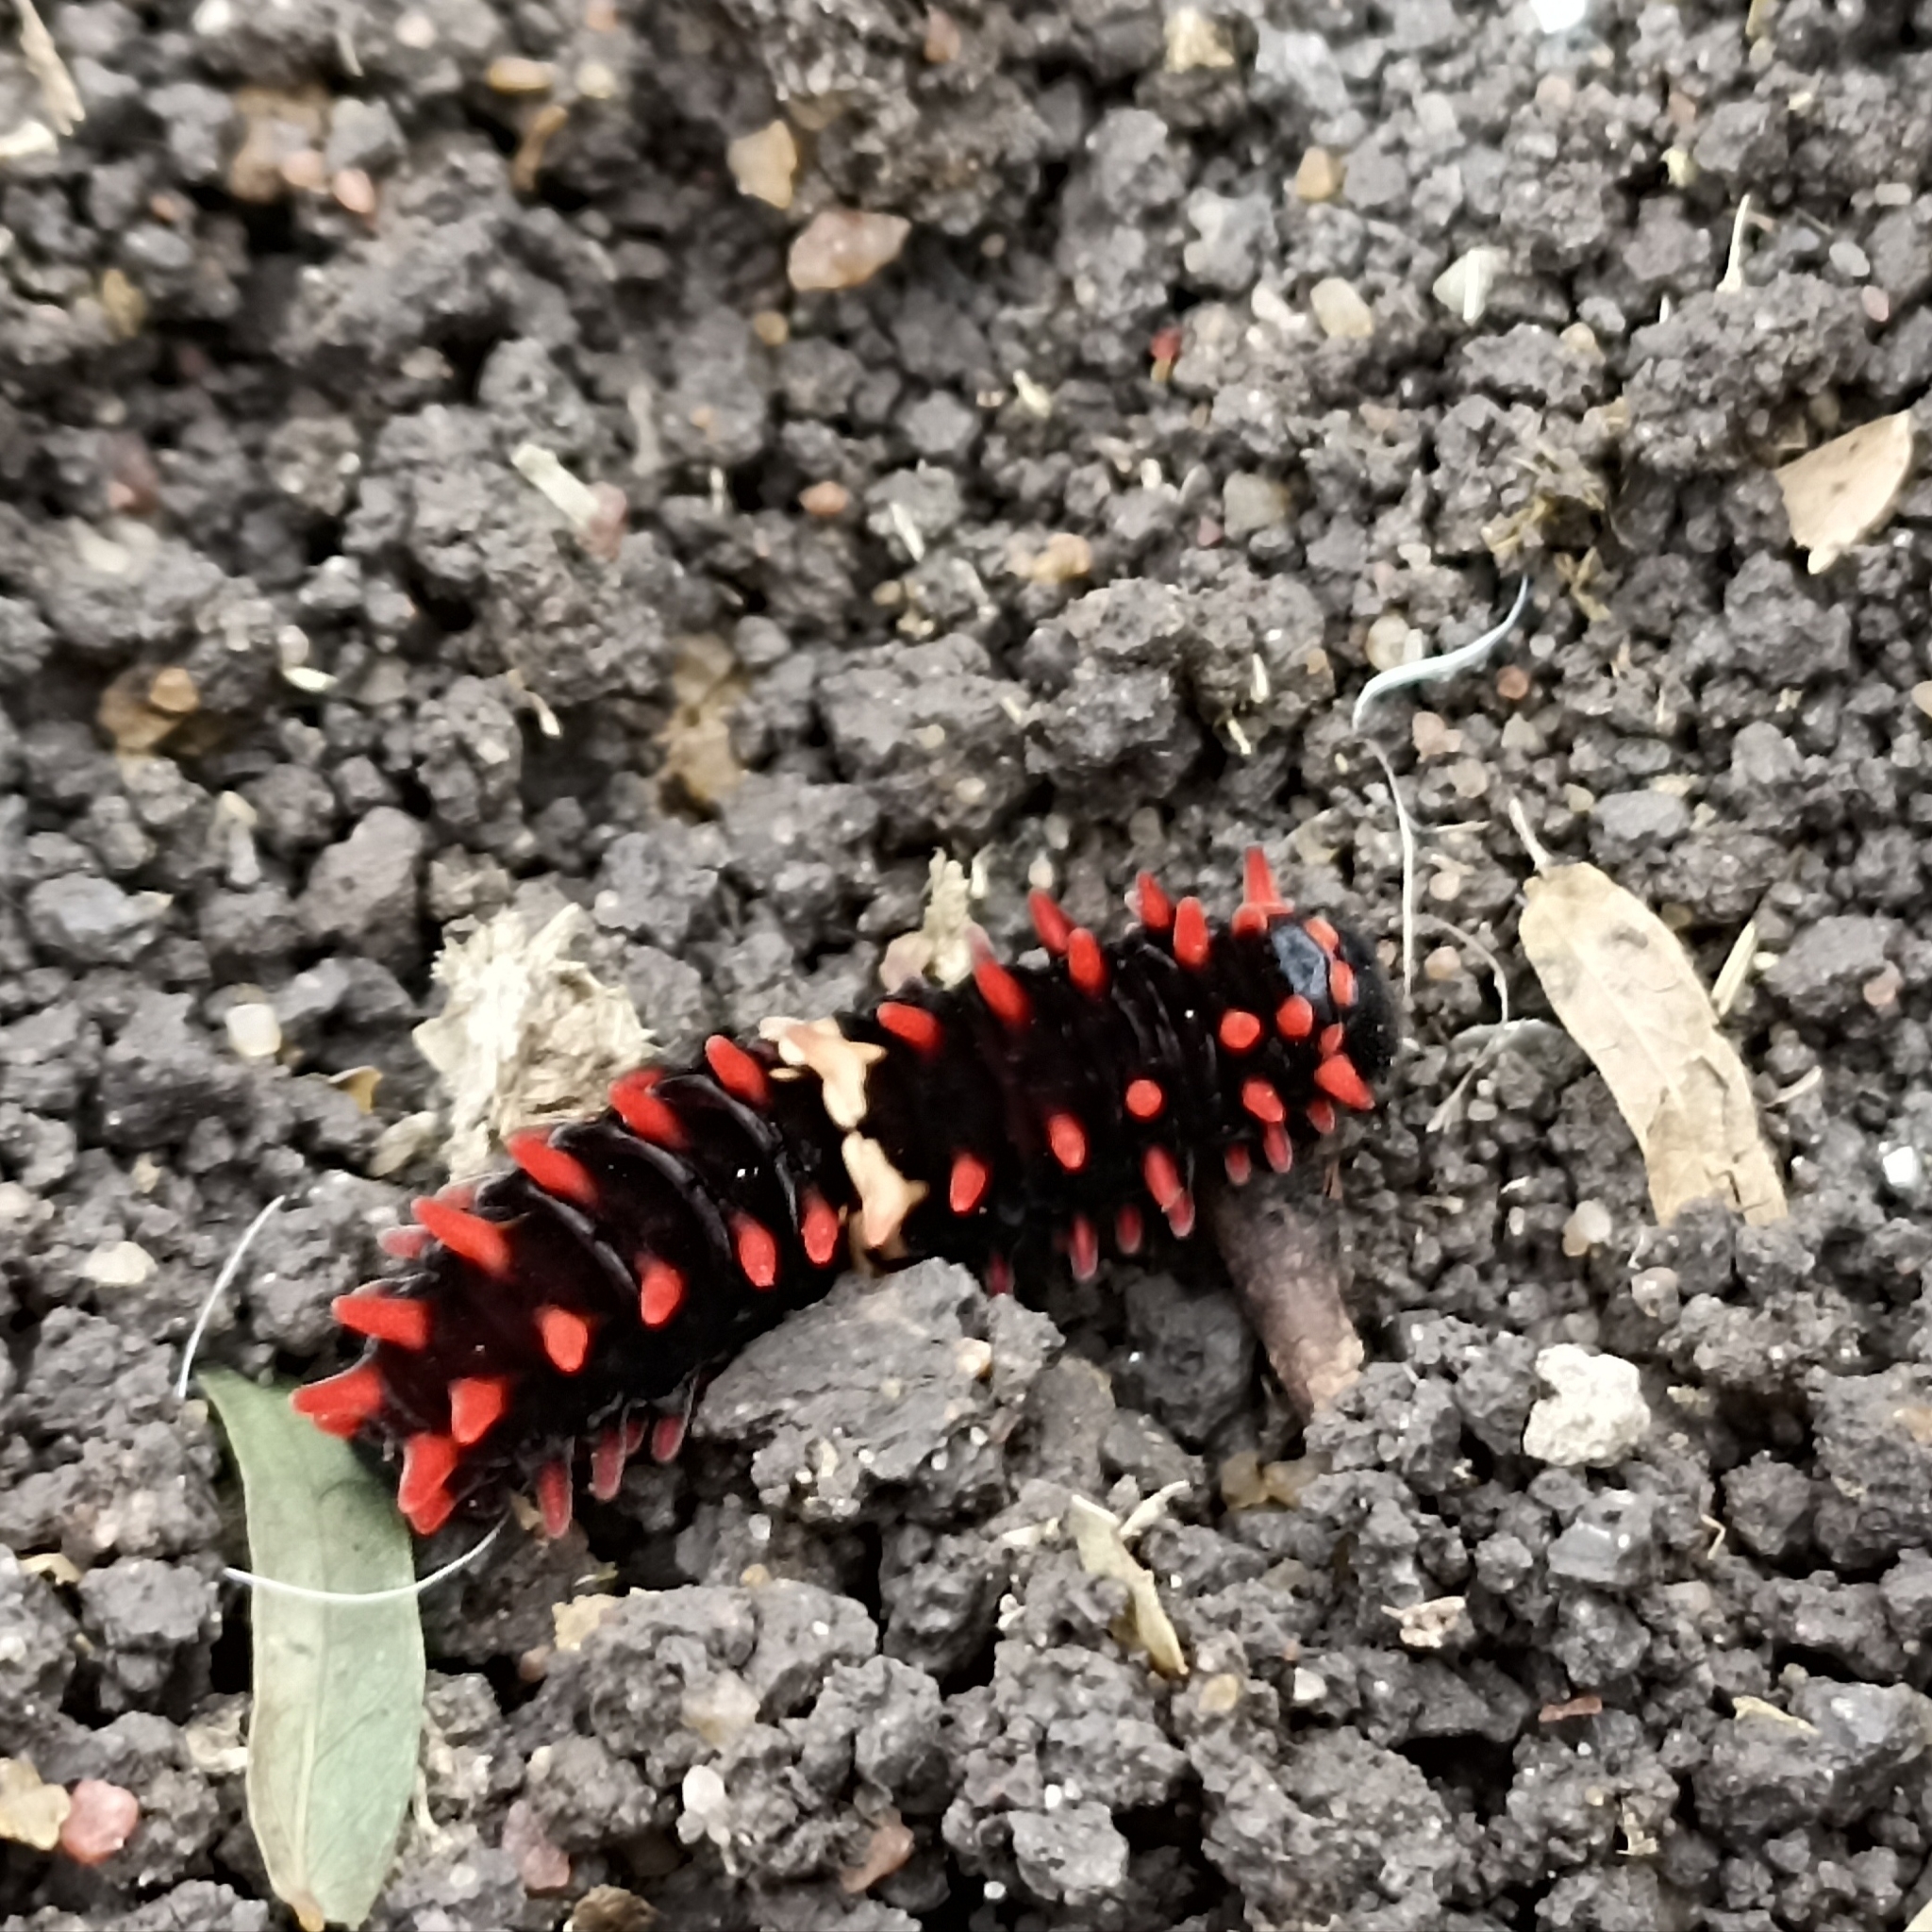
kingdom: Animalia
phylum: Arthropoda
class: Insecta
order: Lepidoptera
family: Papilionidae
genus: Pachliopta
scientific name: Pachliopta aristolochiae
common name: Common rose
